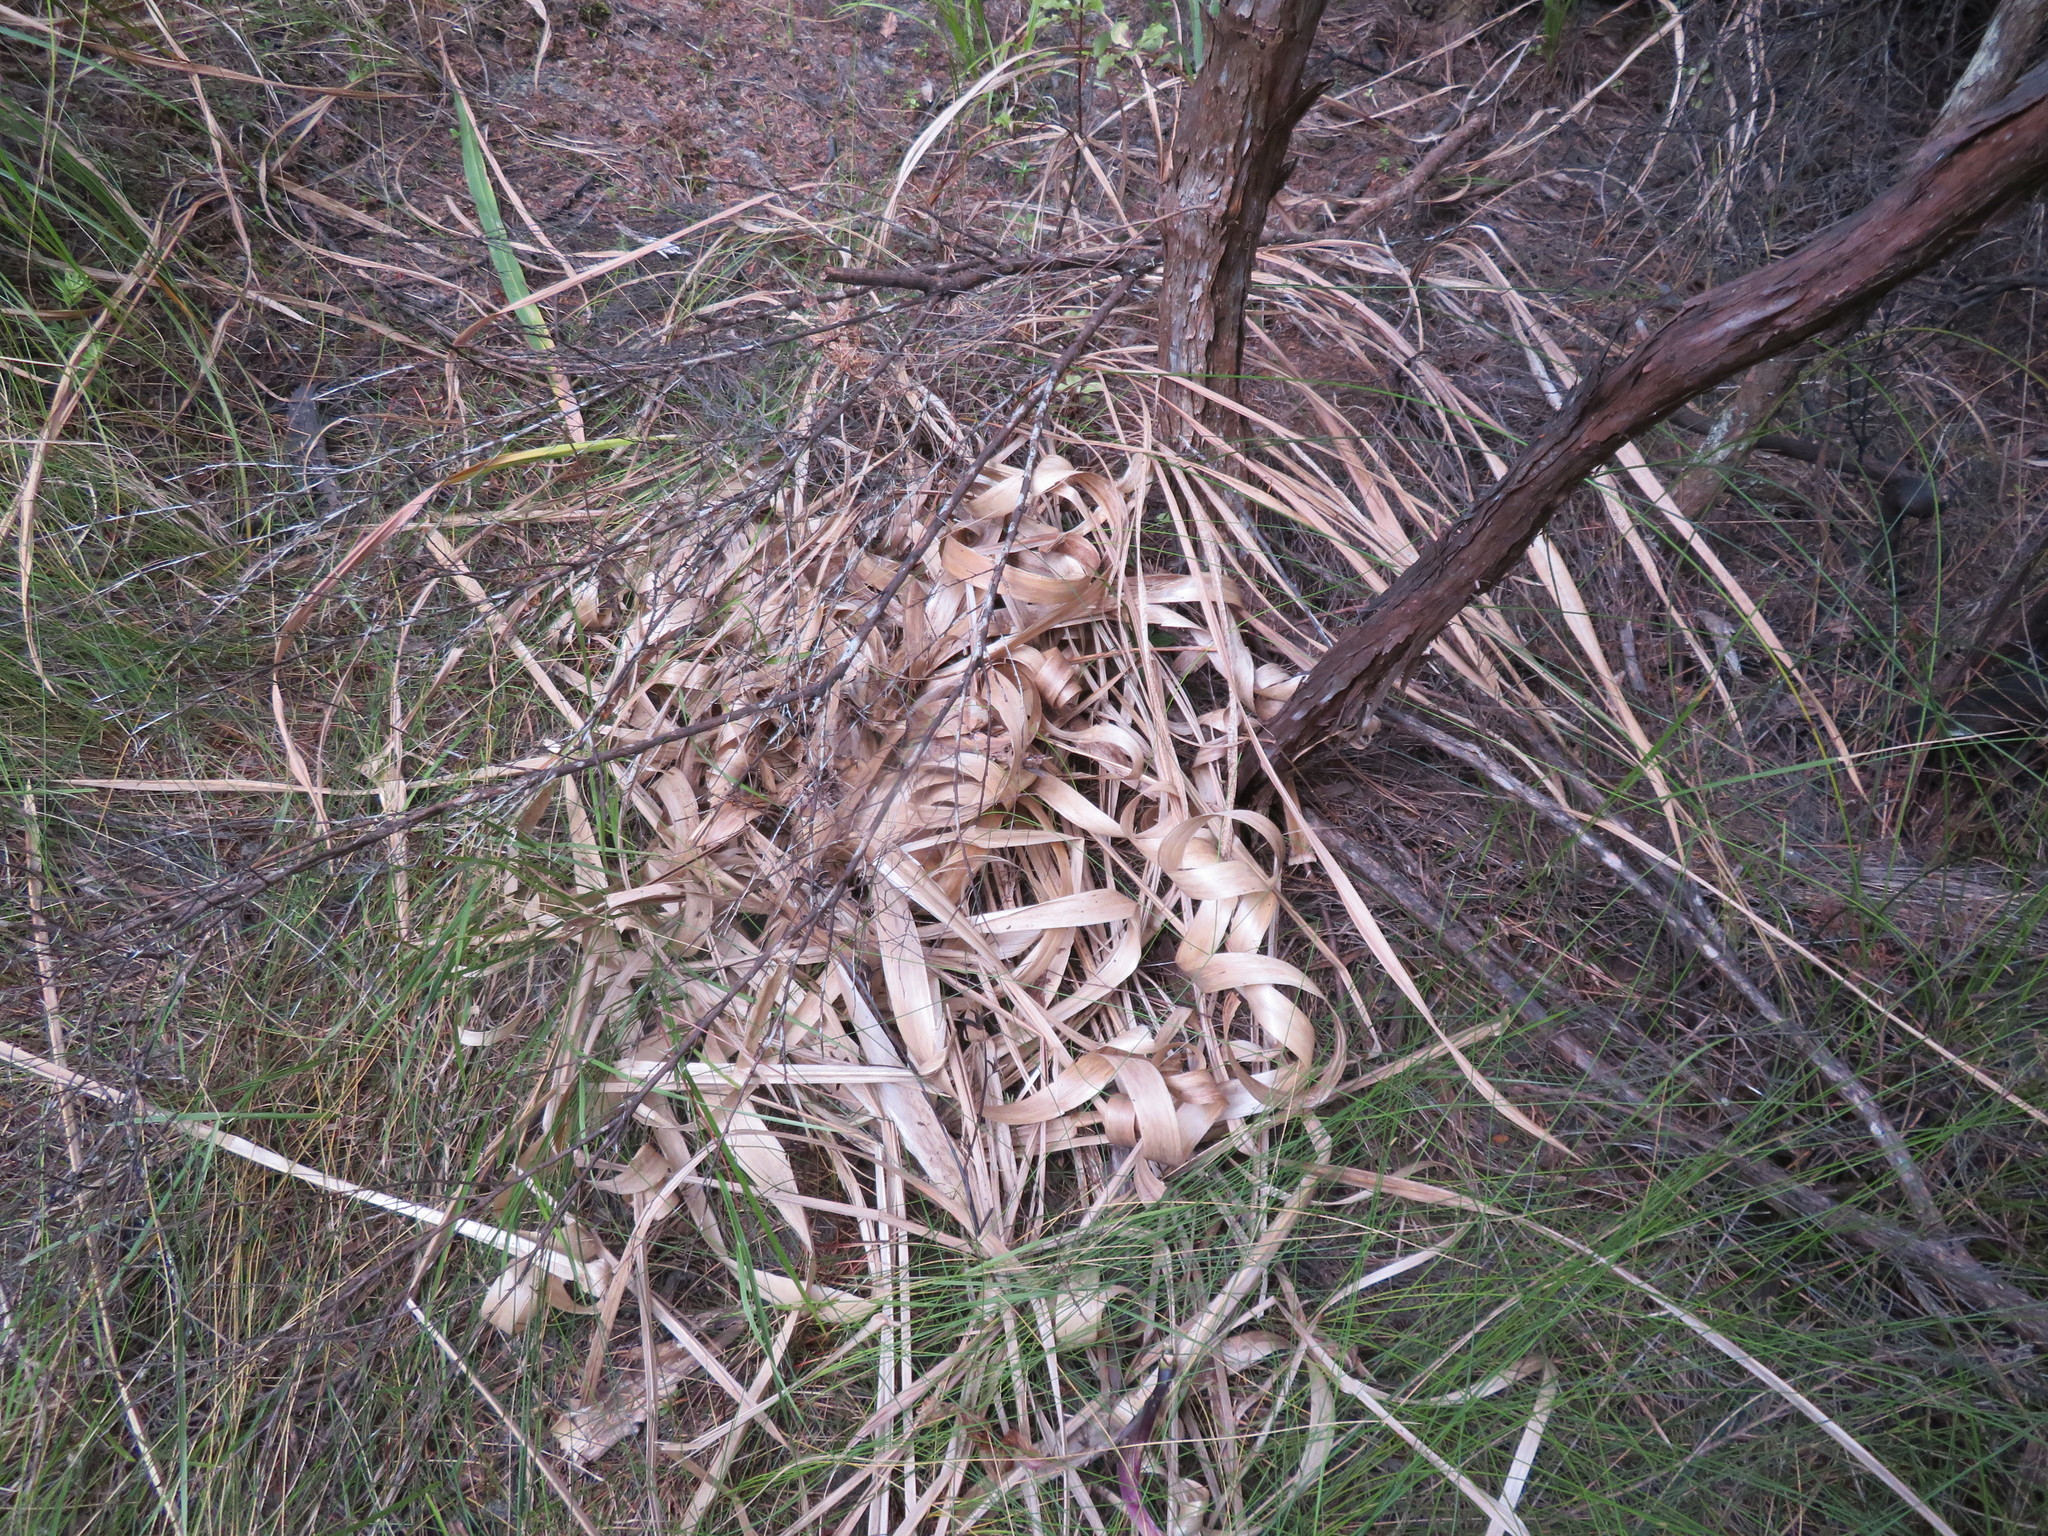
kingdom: Plantae
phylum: Tracheophyta
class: Liliopsida
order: Poales
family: Poaceae
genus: Cortaderia
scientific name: Cortaderia selloana
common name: Uruguayan pampas grass
